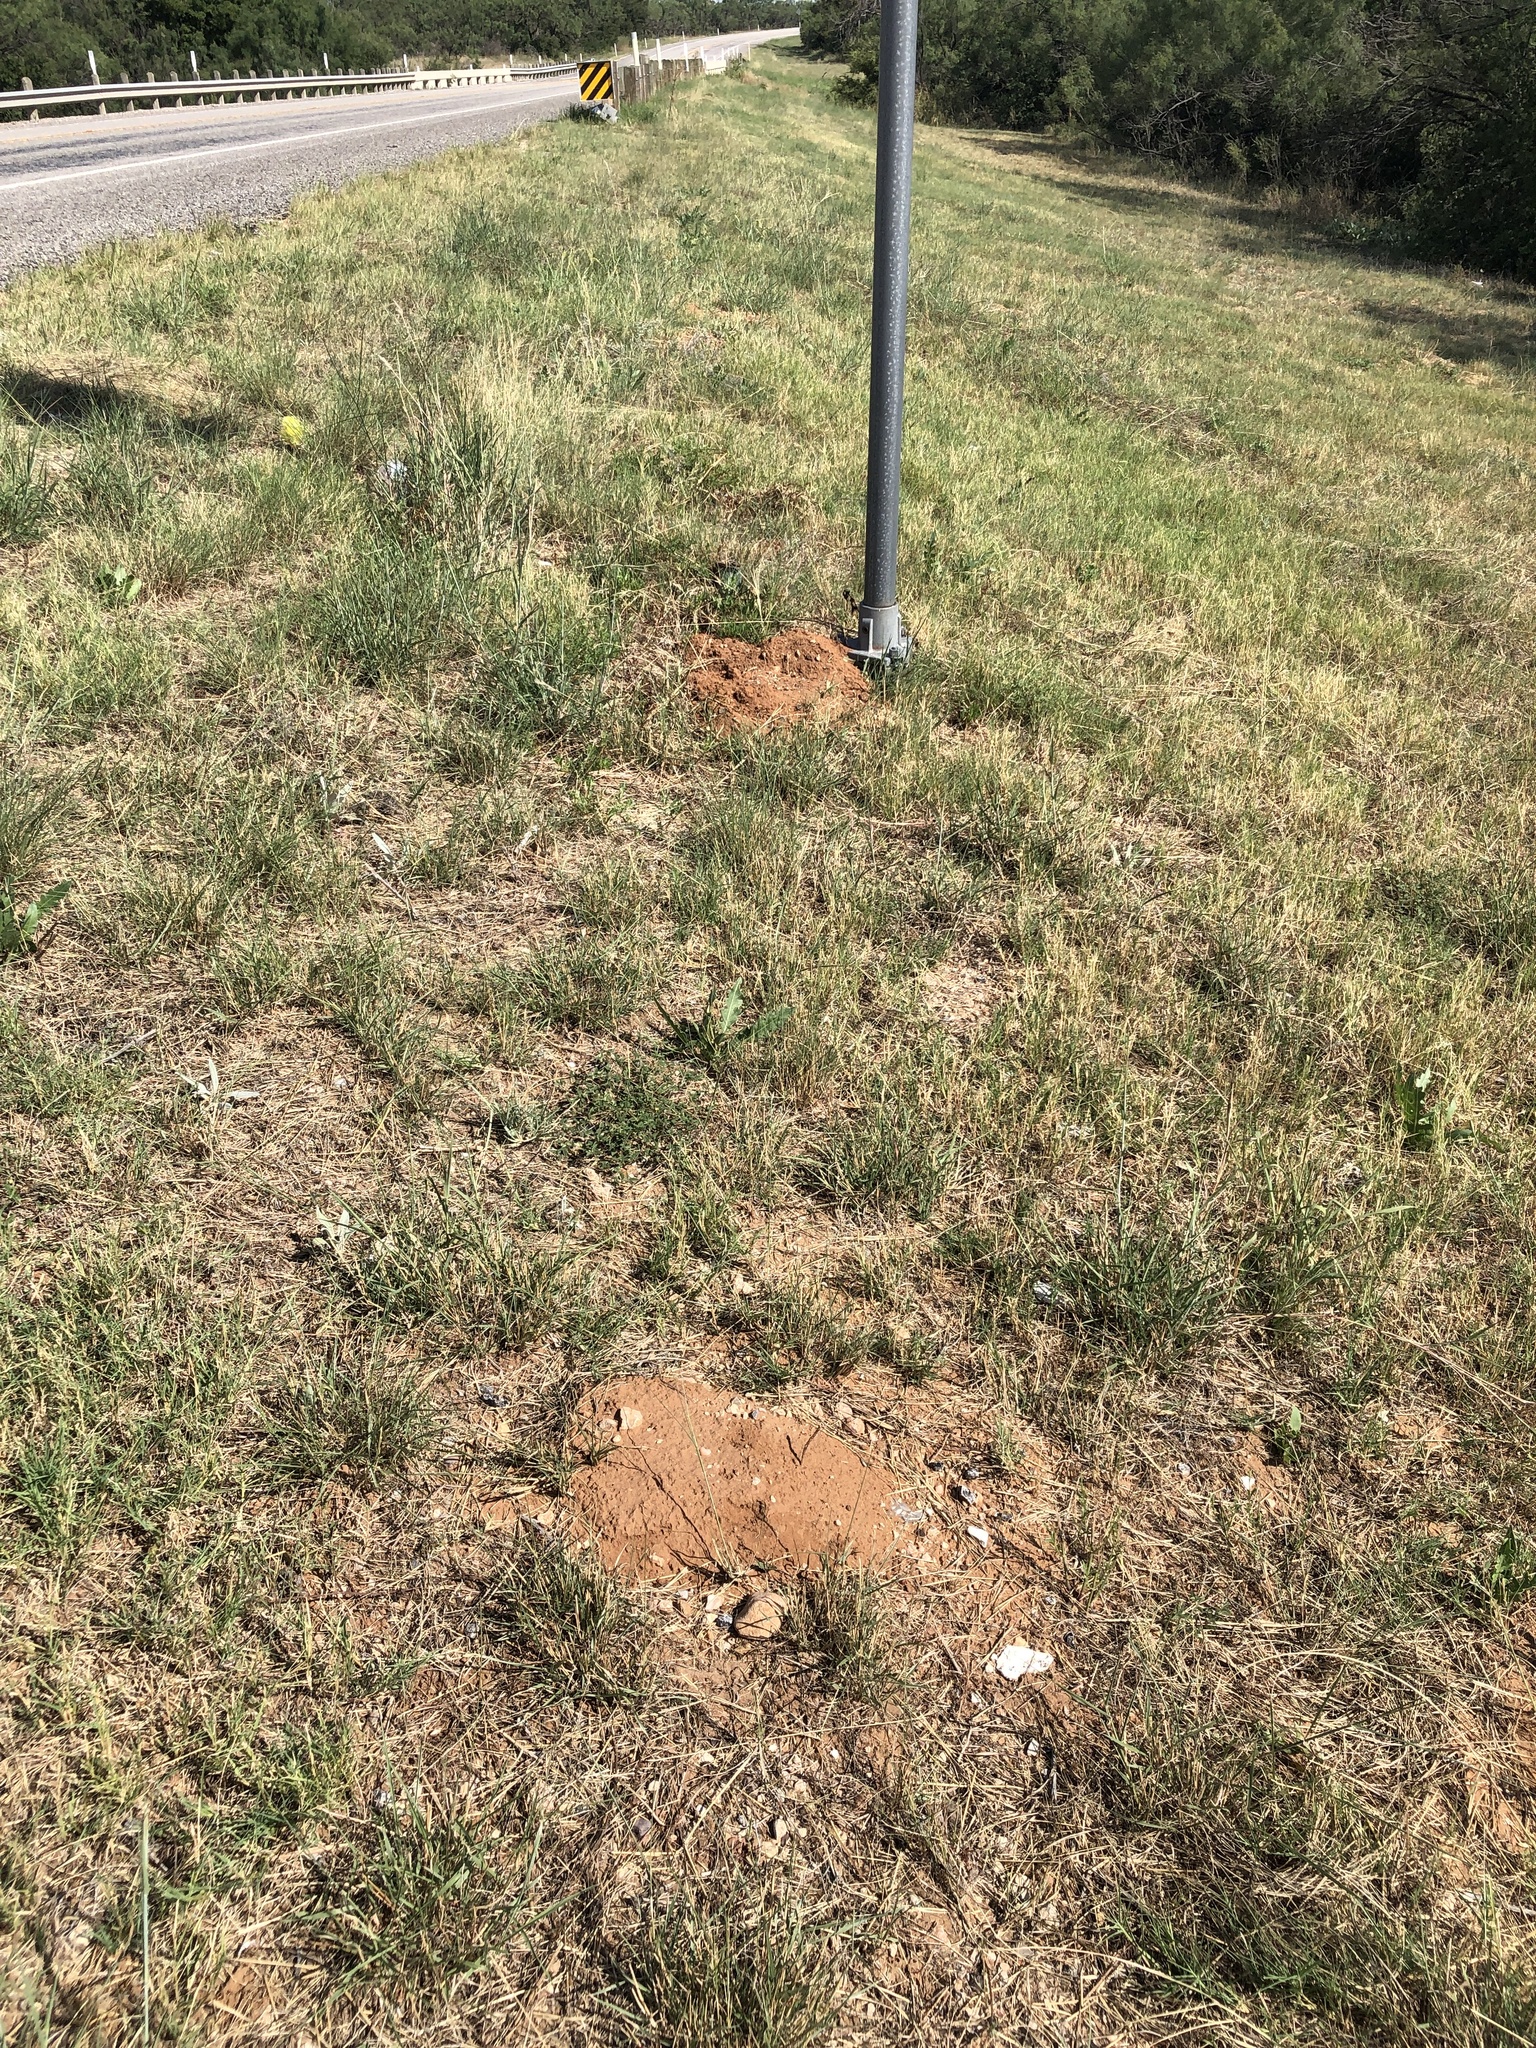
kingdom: Animalia
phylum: Chordata
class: Mammalia
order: Rodentia
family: Geomyidae
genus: Geomys
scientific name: Geomys bursarius
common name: Plains pocket gopher
